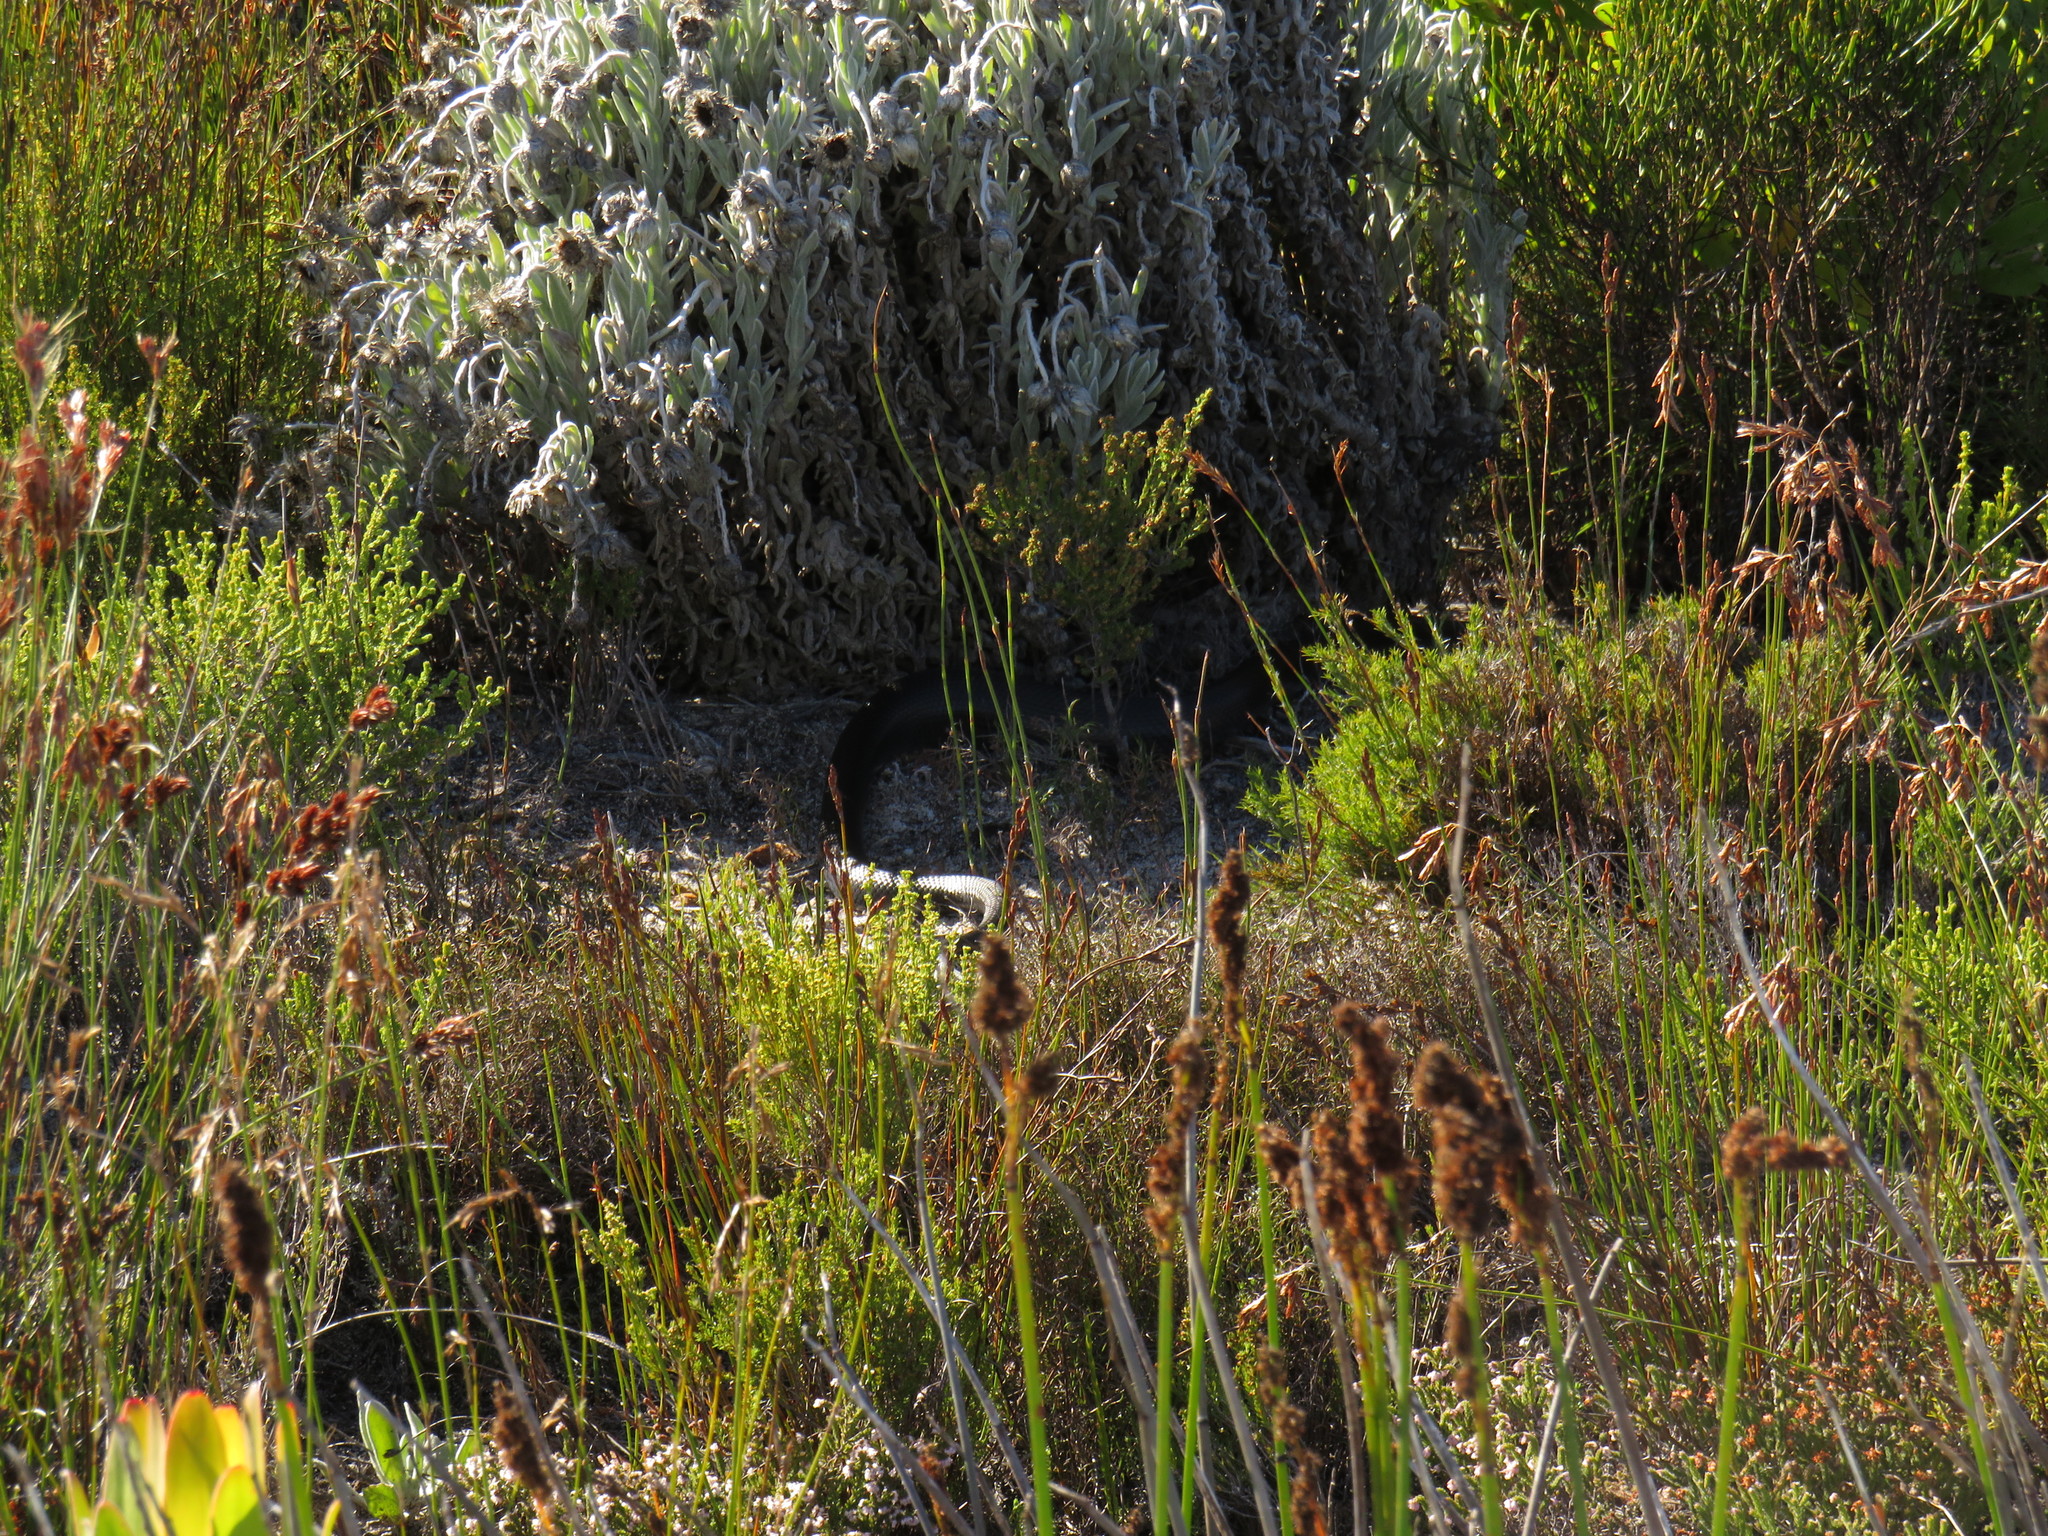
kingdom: Animalia
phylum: Chordata
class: Squamata
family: Pseudaspididae
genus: Pseudaspis
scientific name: Pseudaspis cana
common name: Mole snake
